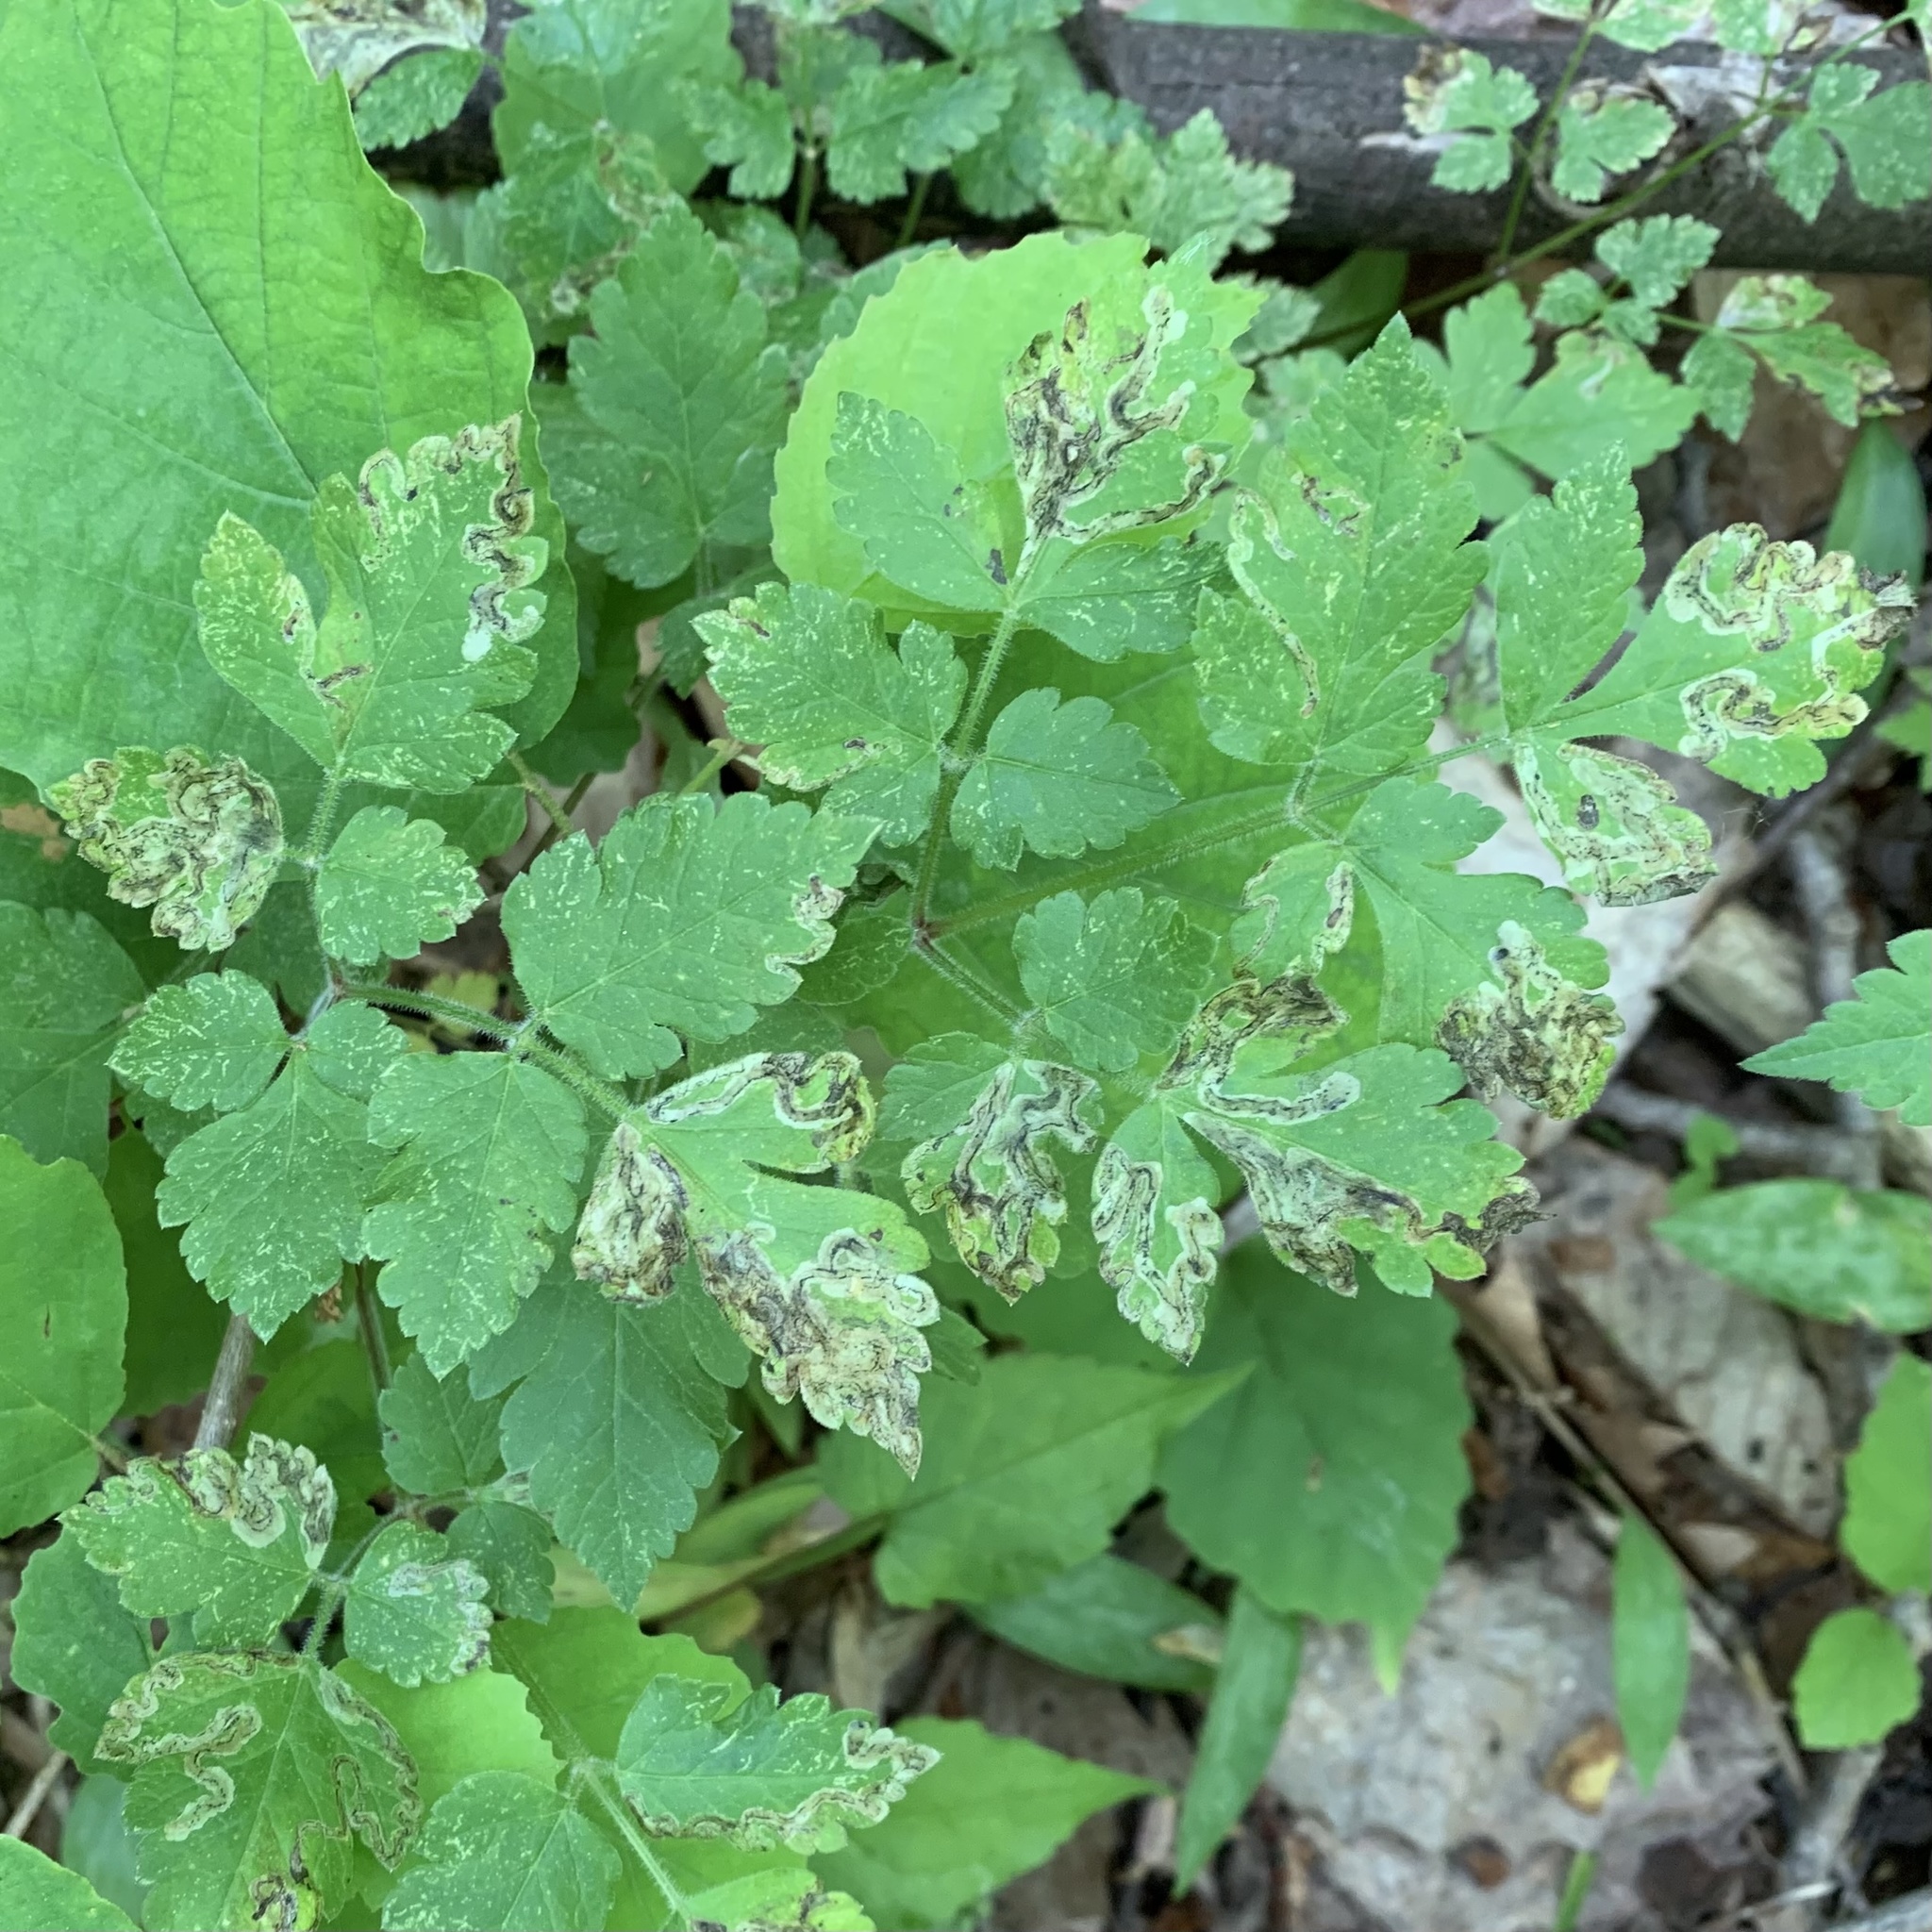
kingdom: Animalia
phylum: Arthropoda
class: Insecta
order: Diptera
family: Agromyzidae
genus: Phytomyza
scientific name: Phytomyza osmorhizae
